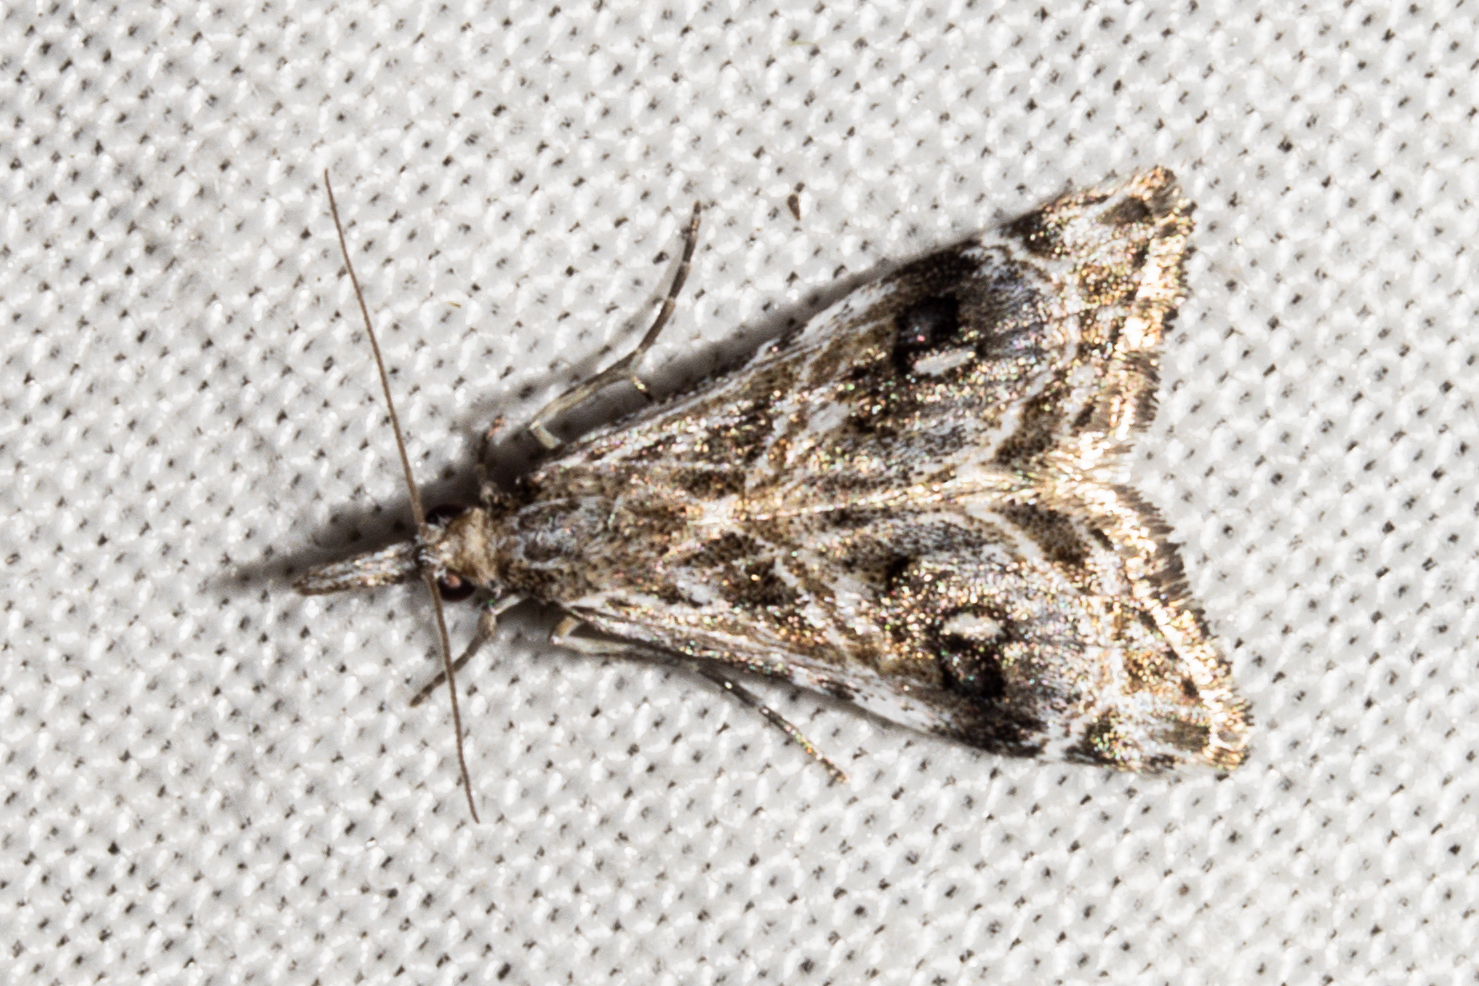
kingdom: Animalia
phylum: Arthropoda
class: Insecta
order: Lepidoptera
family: Crambidae
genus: Gadira
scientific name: Gadira acerella
